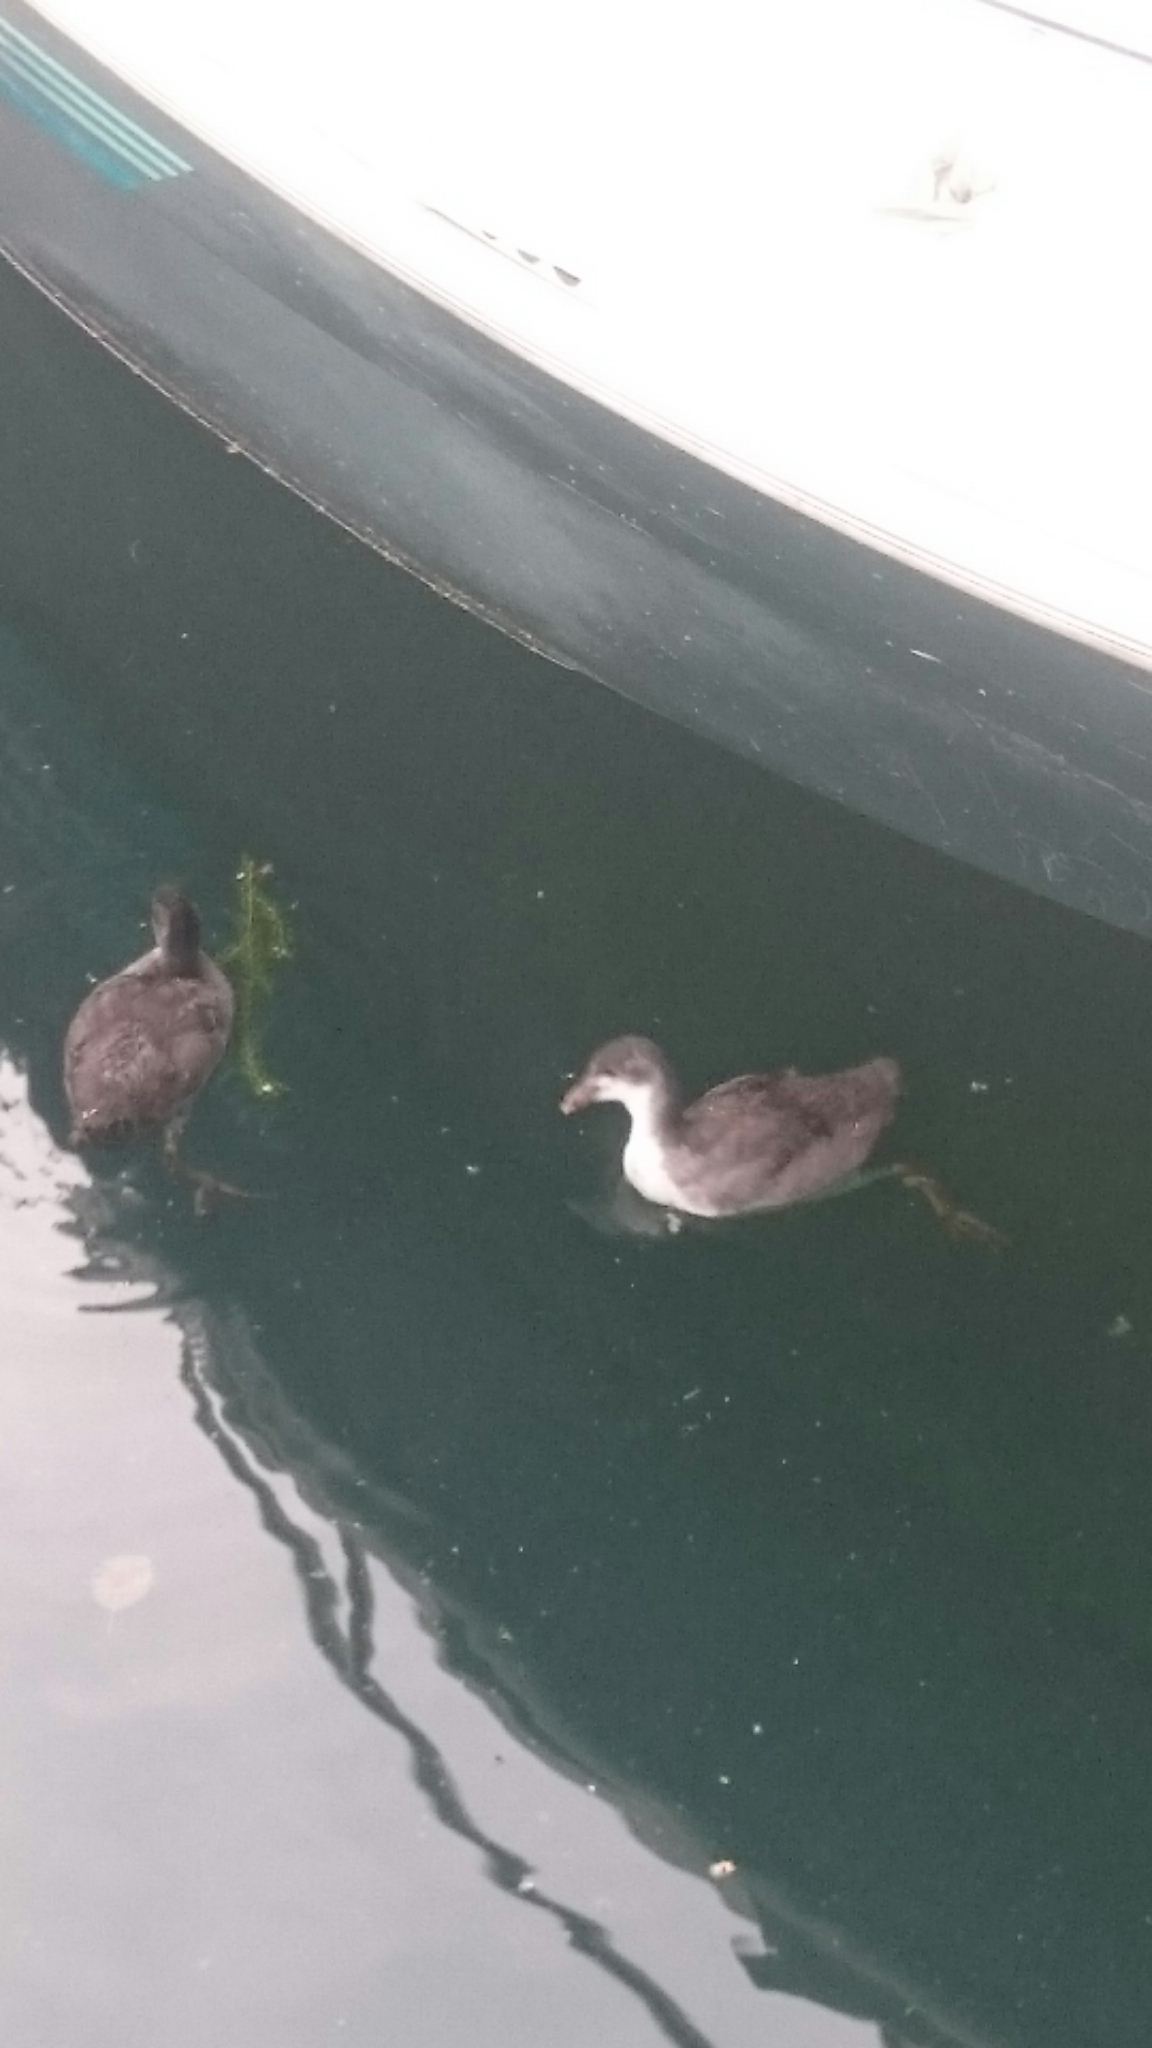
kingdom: Animalia
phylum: Chordata
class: Aves
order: Gruiformes
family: Rallidae
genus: Fulica
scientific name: Fulica atra
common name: Eurasian coot
